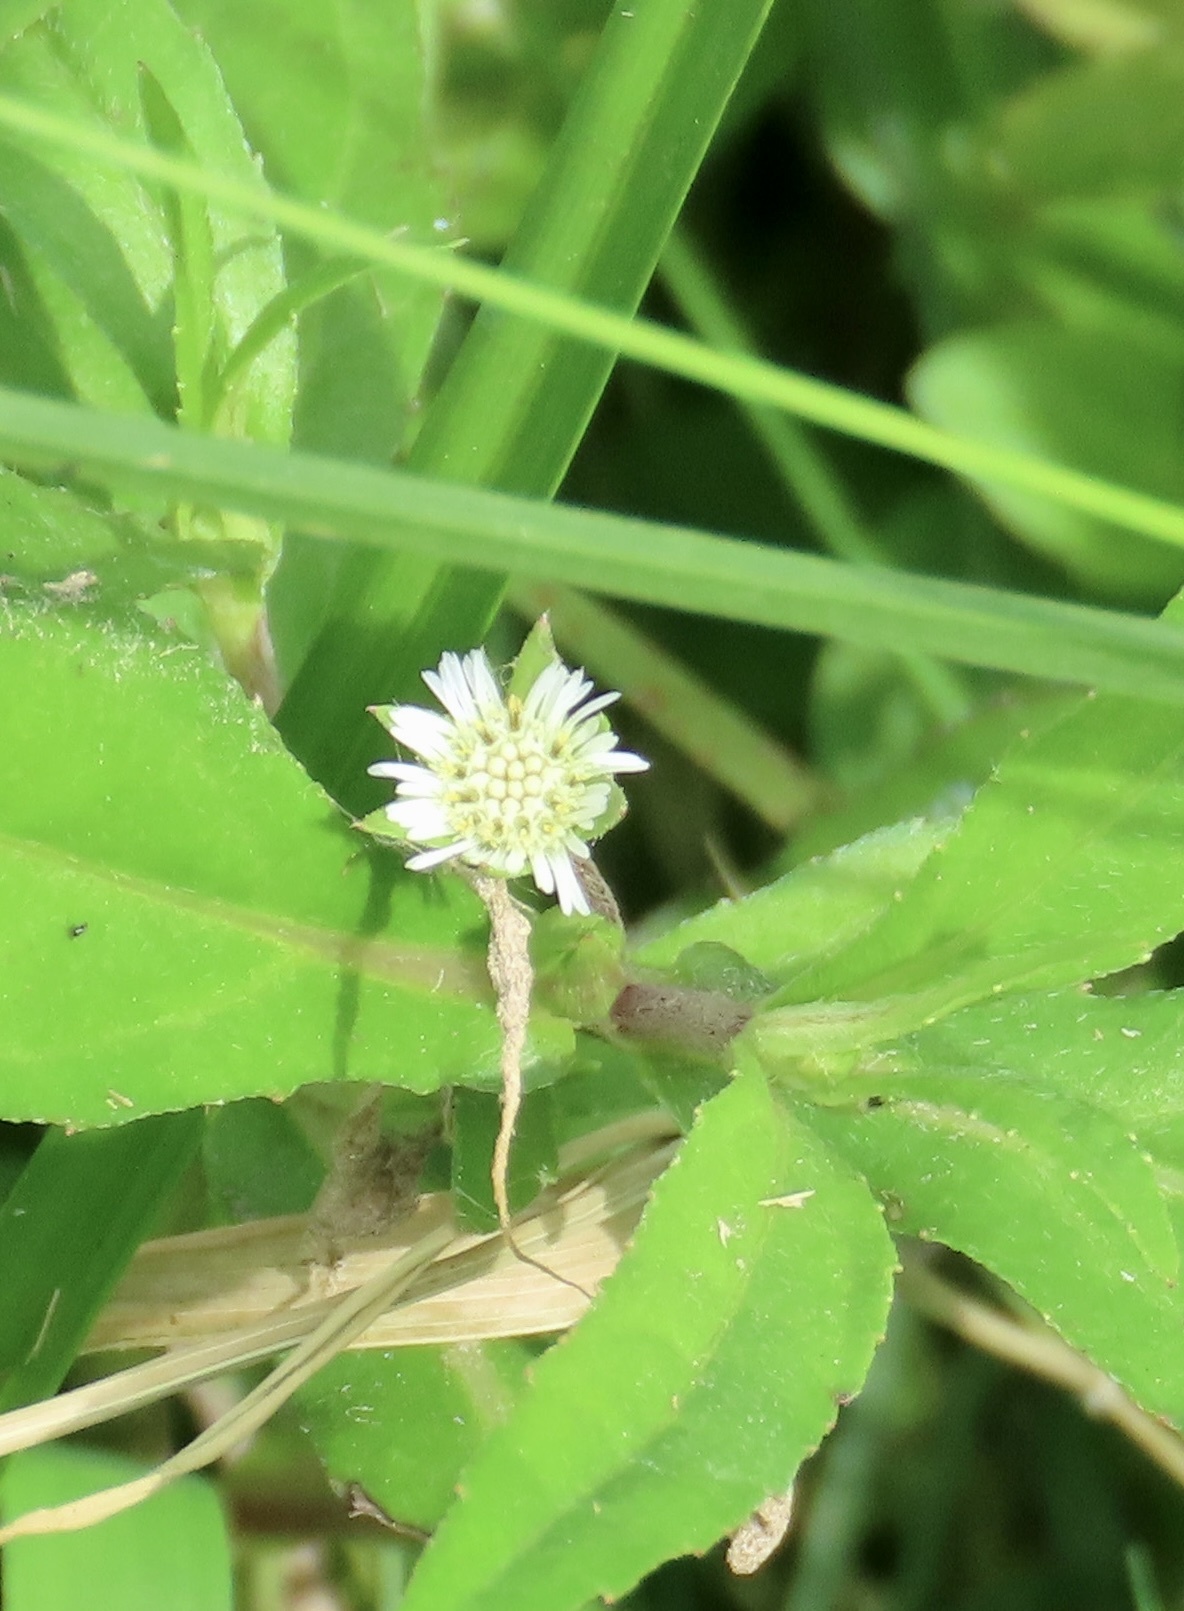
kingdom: Plantae
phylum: Tracheophyta
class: Magnoliopsida
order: Asterales
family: Asteraceae
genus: Eclipta
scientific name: Eclipta prostrata
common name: False daisy
